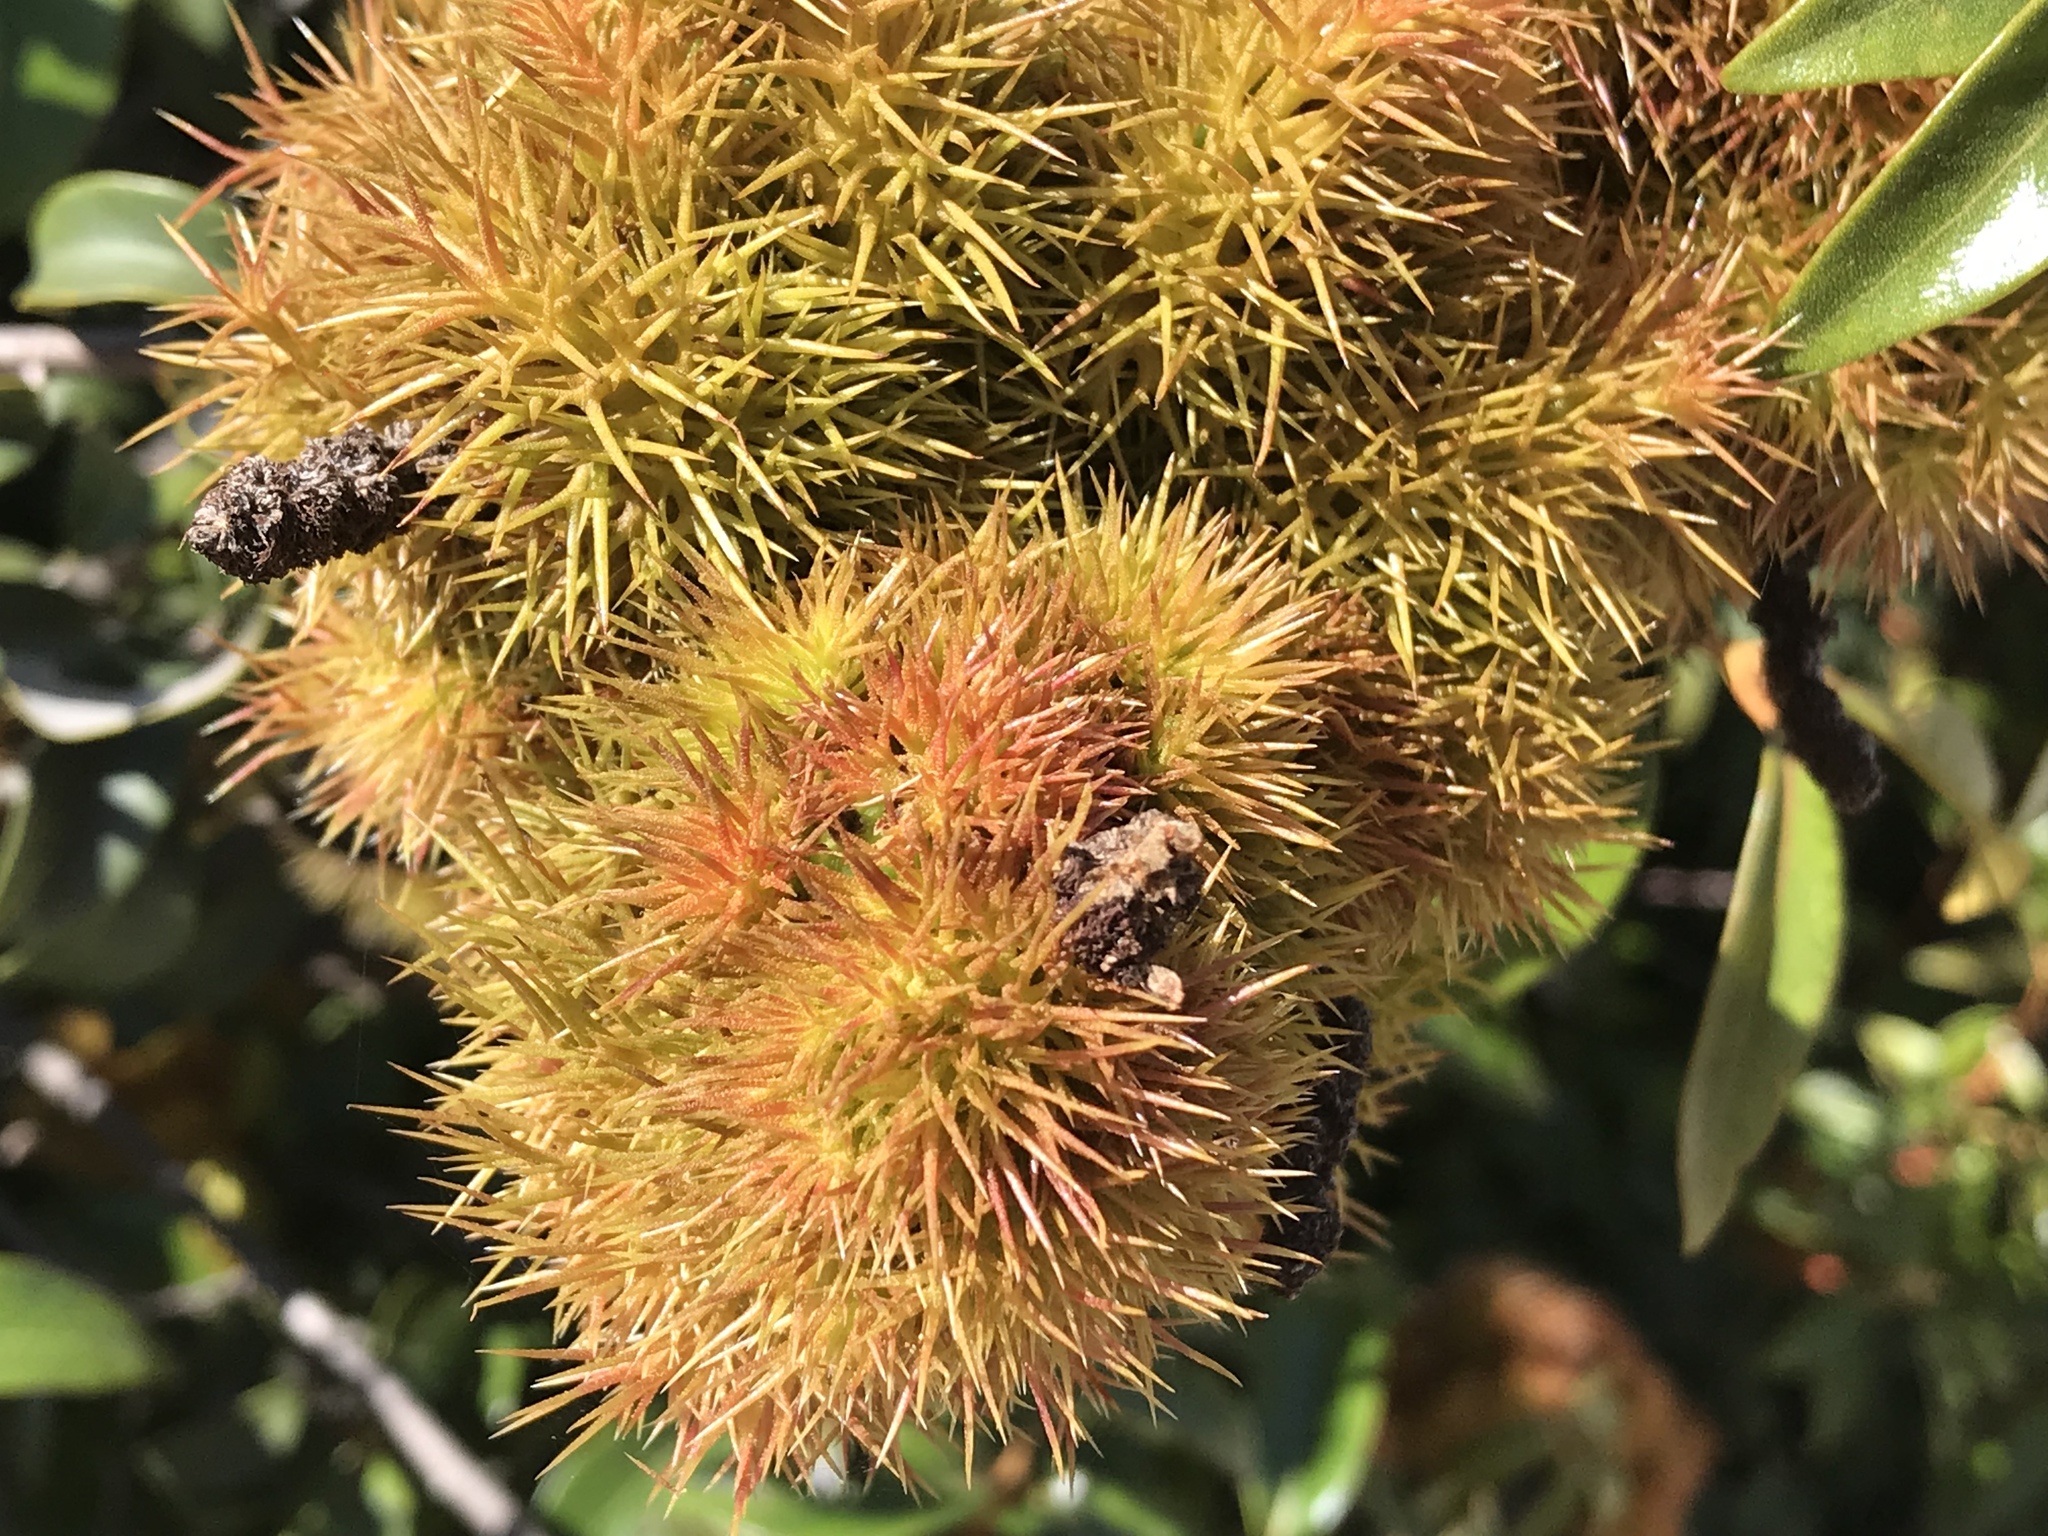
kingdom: Plantae
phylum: Tracheophyta
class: Magnoliopsida
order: Fagales
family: Fagaceae
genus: Chrysolepis
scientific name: Chrysolepis chrysophylla
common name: Giant chinquapin
